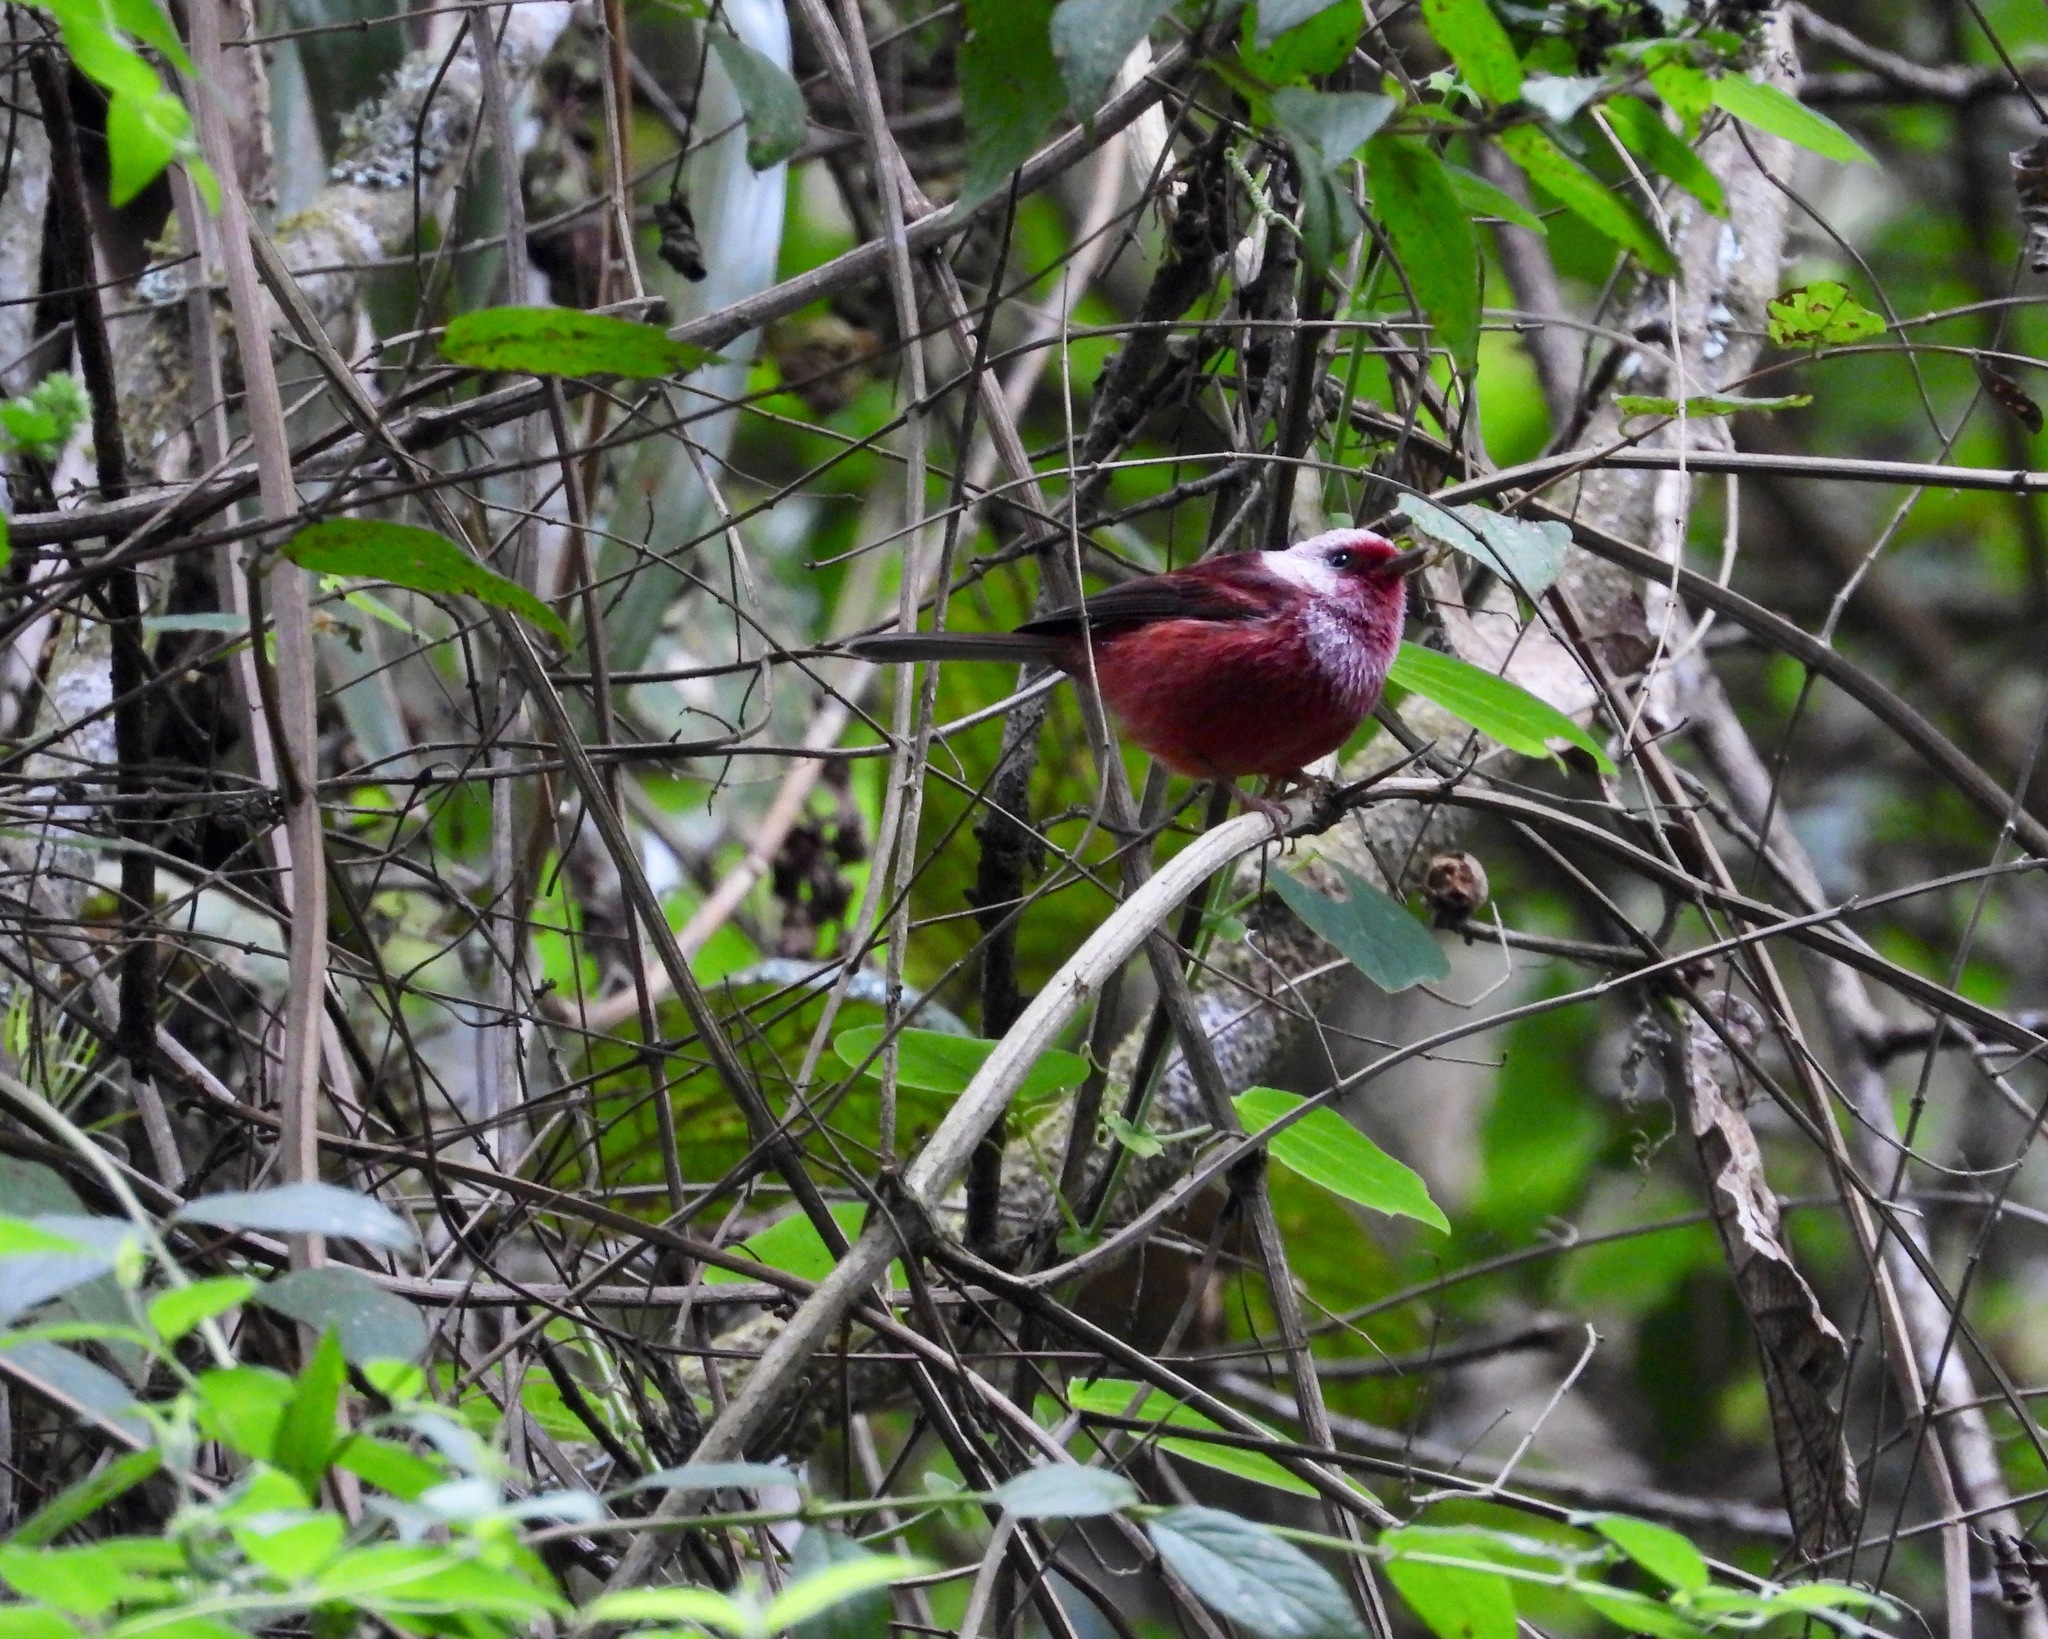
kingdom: Animalia
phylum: Chordata
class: Aves
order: Passeriformes
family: Parulidae
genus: Cardellina
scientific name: Cardellina versicolor
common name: Pink-headed warbler
